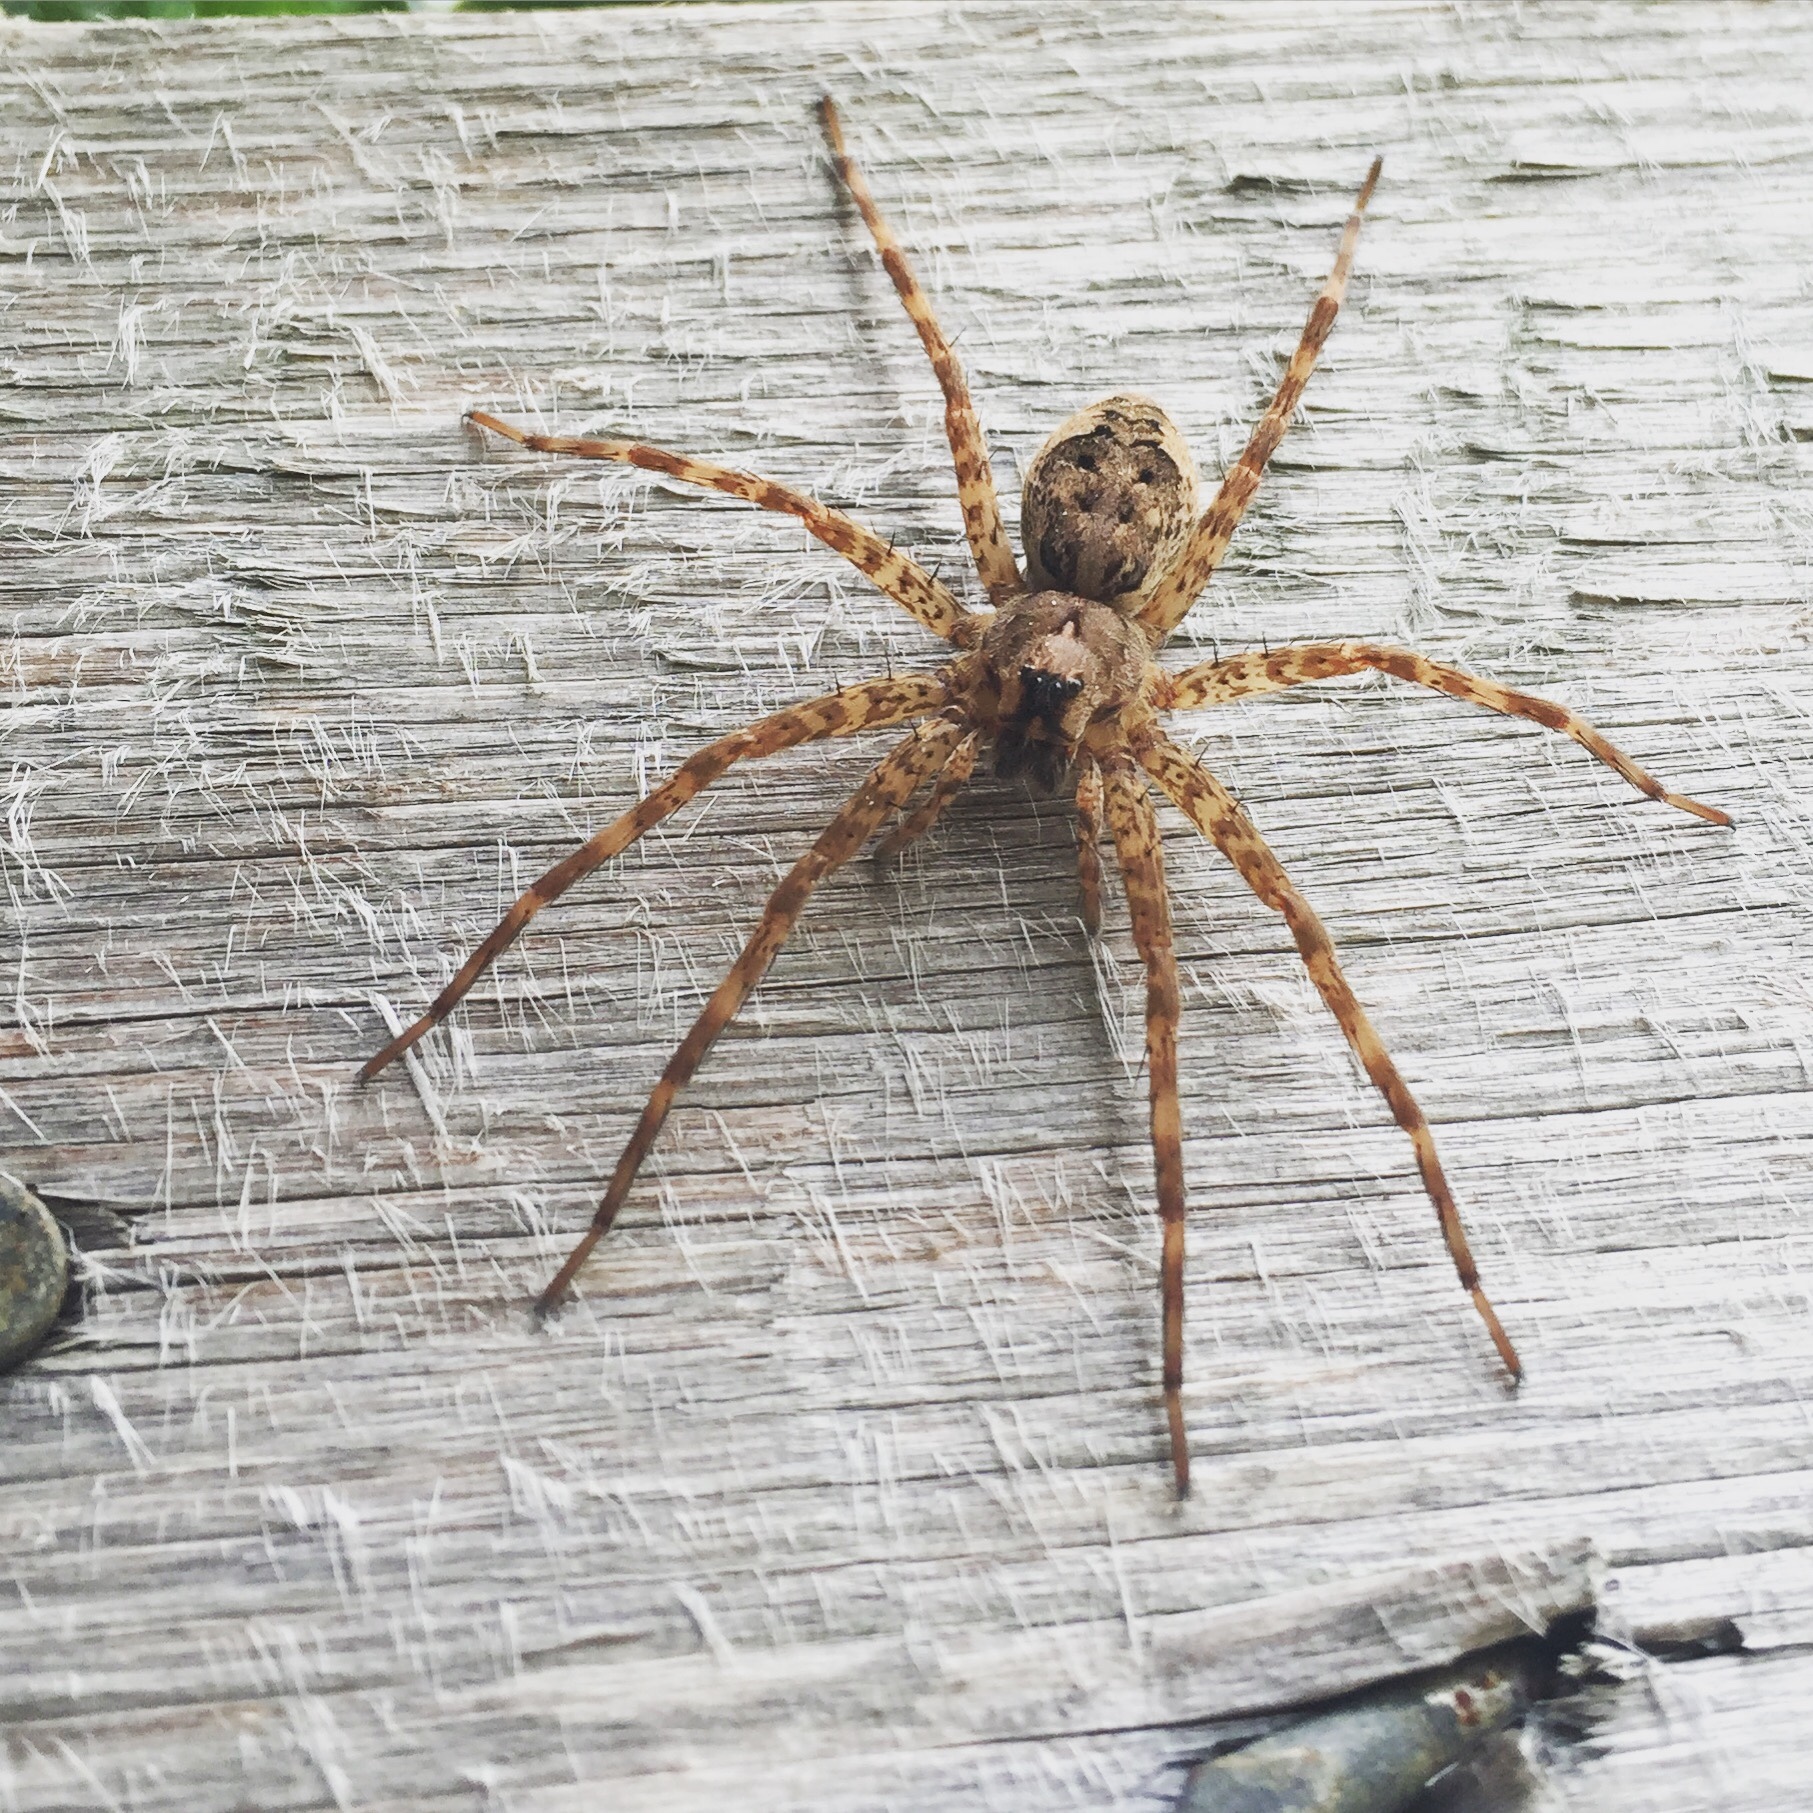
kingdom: Animalia
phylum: Arthropoda
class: Arachnida
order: Araneae
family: Pisauridae
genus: Dolomedes
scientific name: Dolomedes tenebrosus
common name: Dark fishing spider
